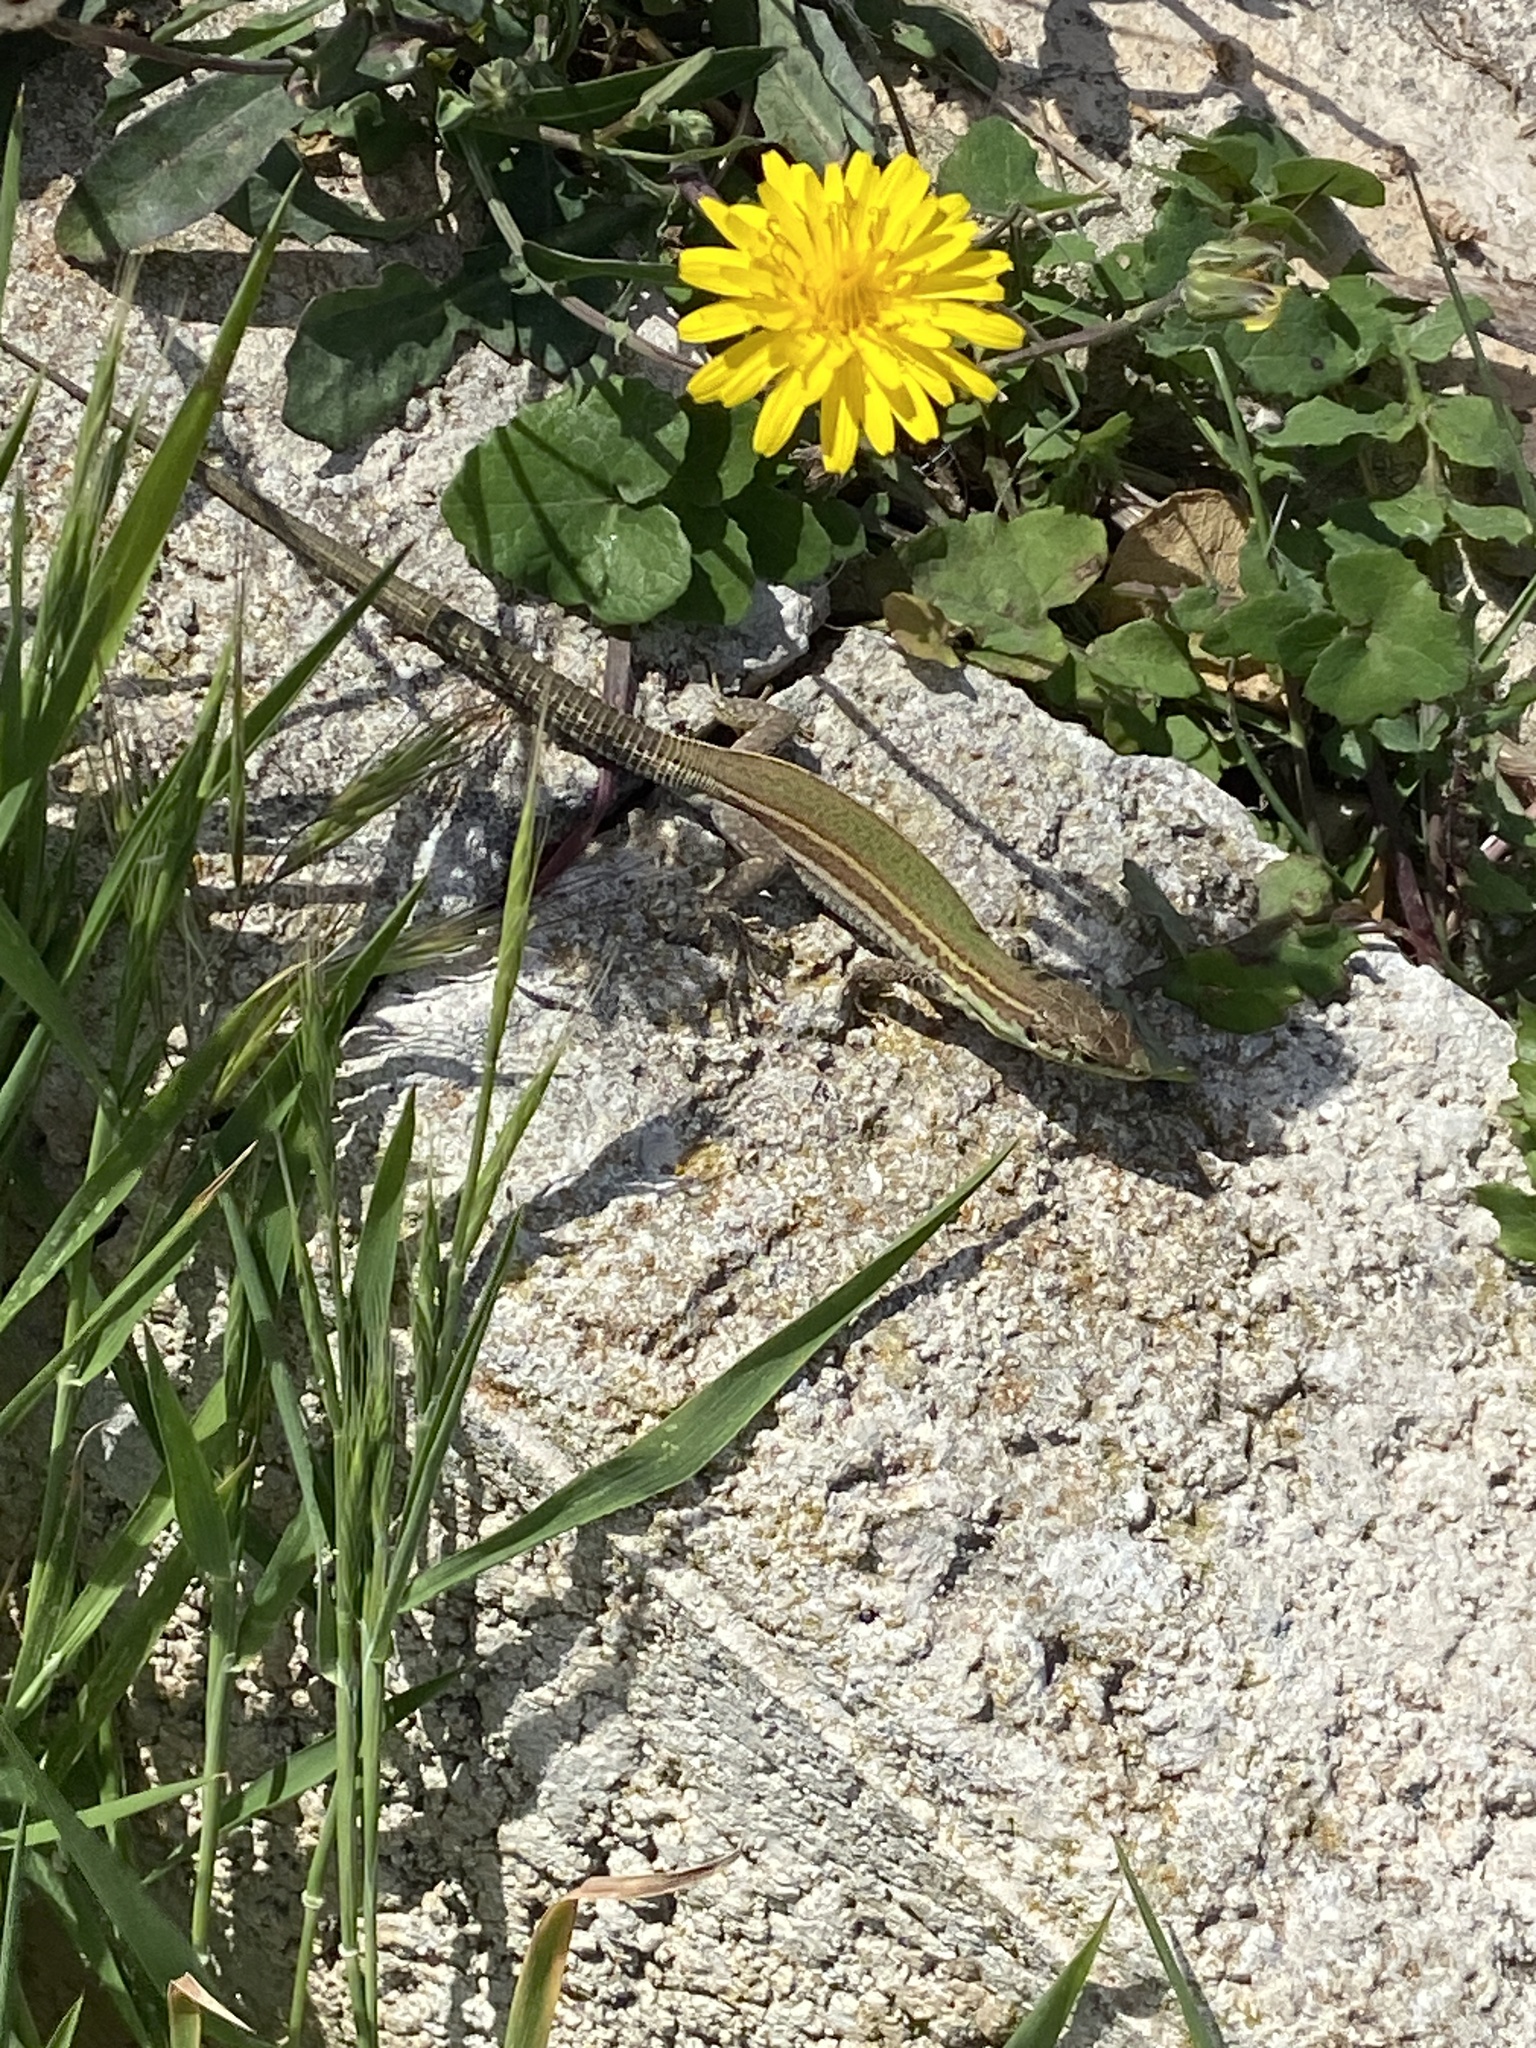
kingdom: Animalia
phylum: Chordata
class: Squamata
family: Lacertidae
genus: Podarcis
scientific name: Podarcis filfolensis
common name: Maltese wall lizard
